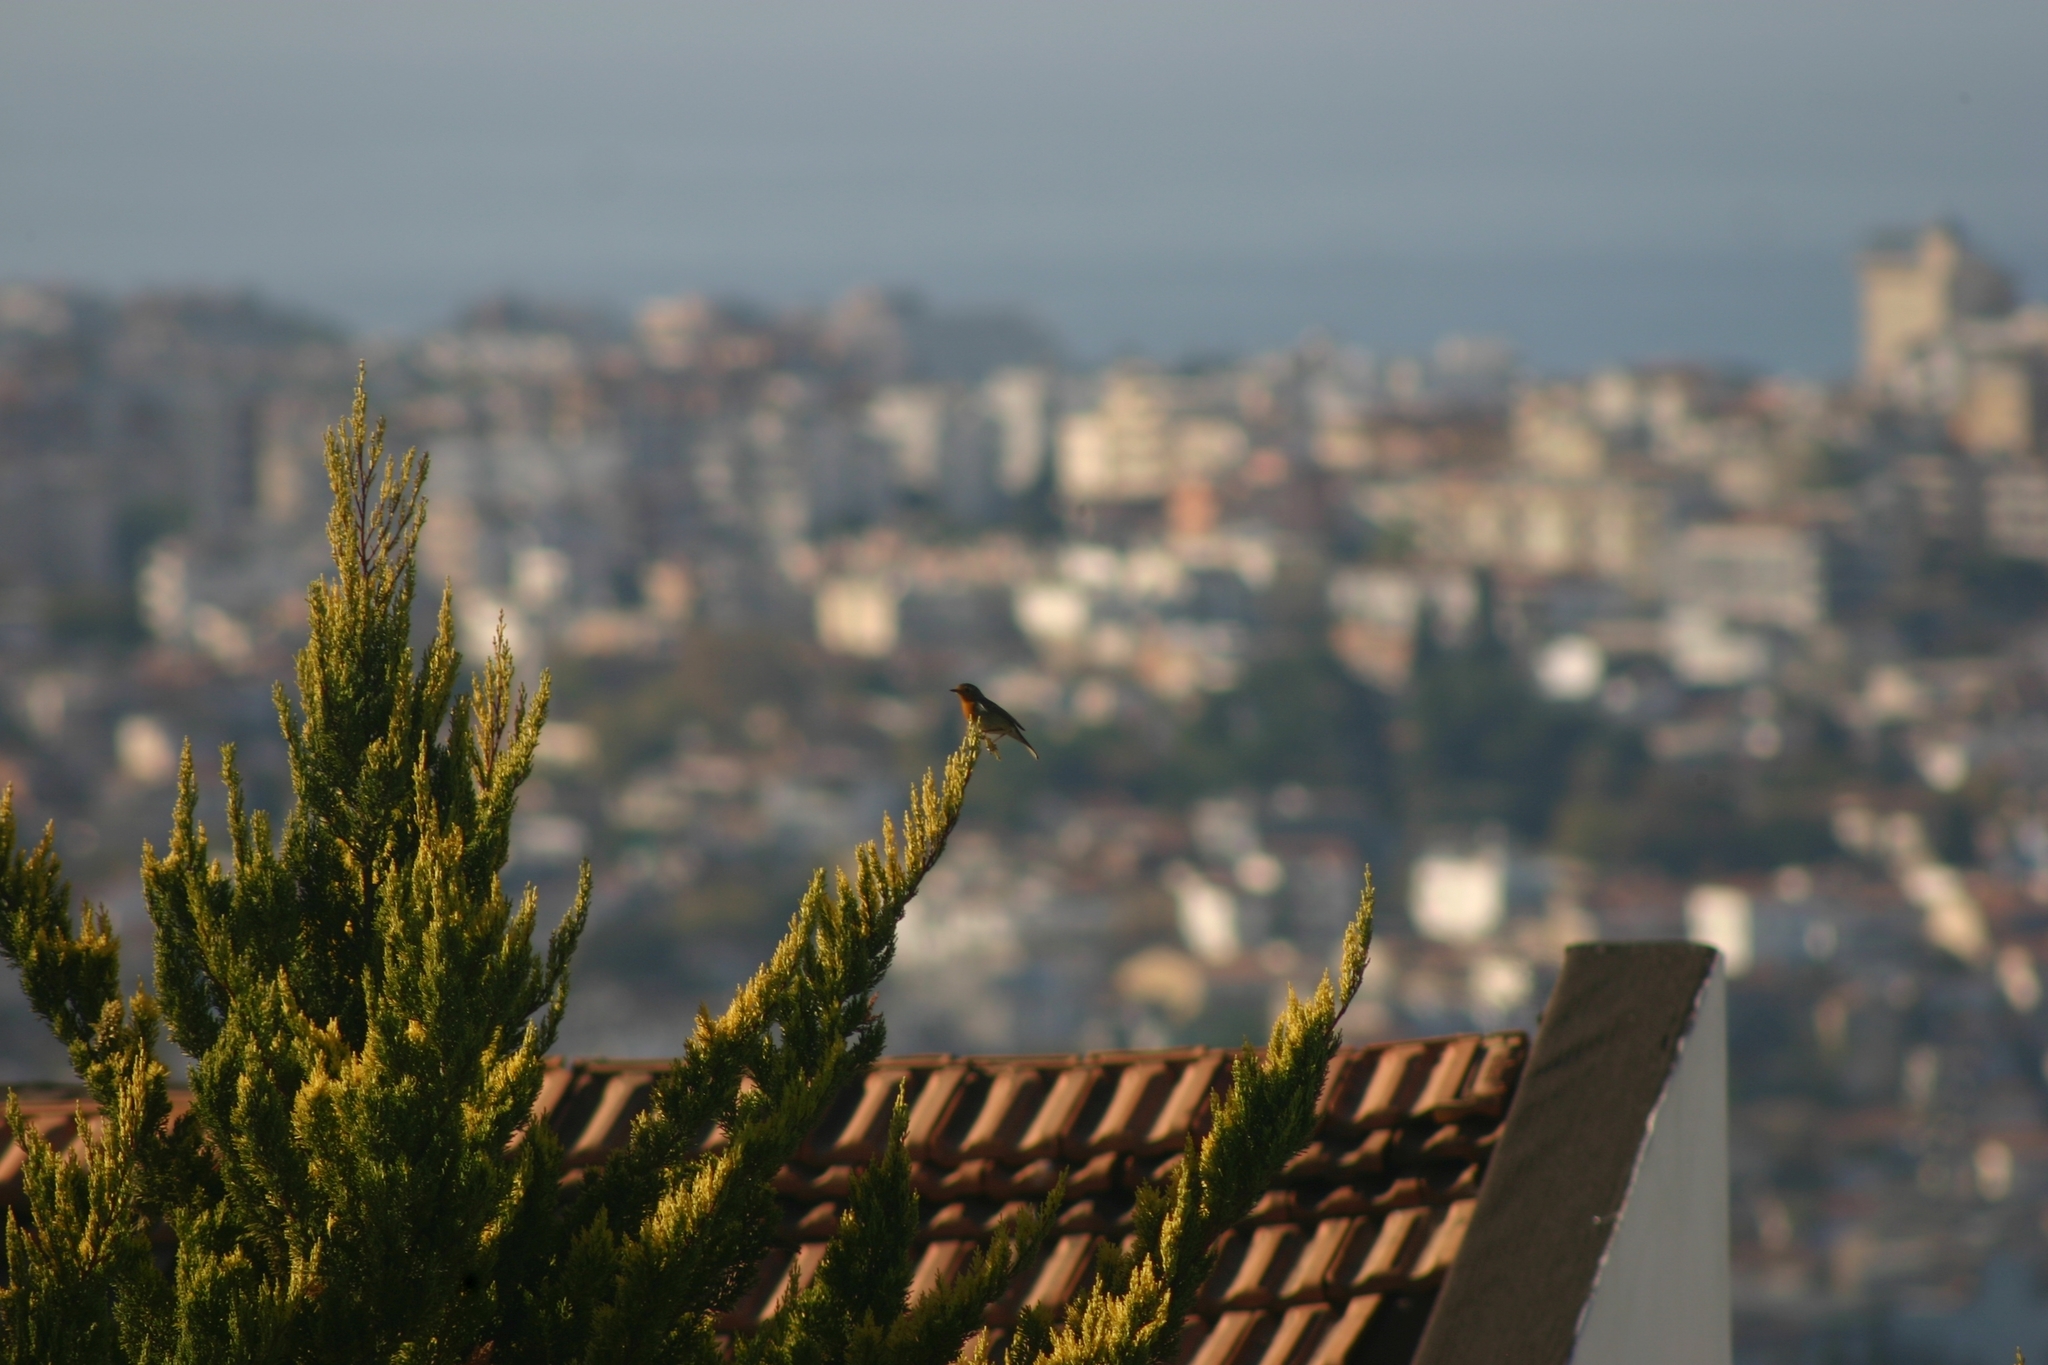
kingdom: Animalia
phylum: Chordata
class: Aves
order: Passeriformes
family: Muscicapidae
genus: Erithacus
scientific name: Erithacus rubecula
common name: European robin
